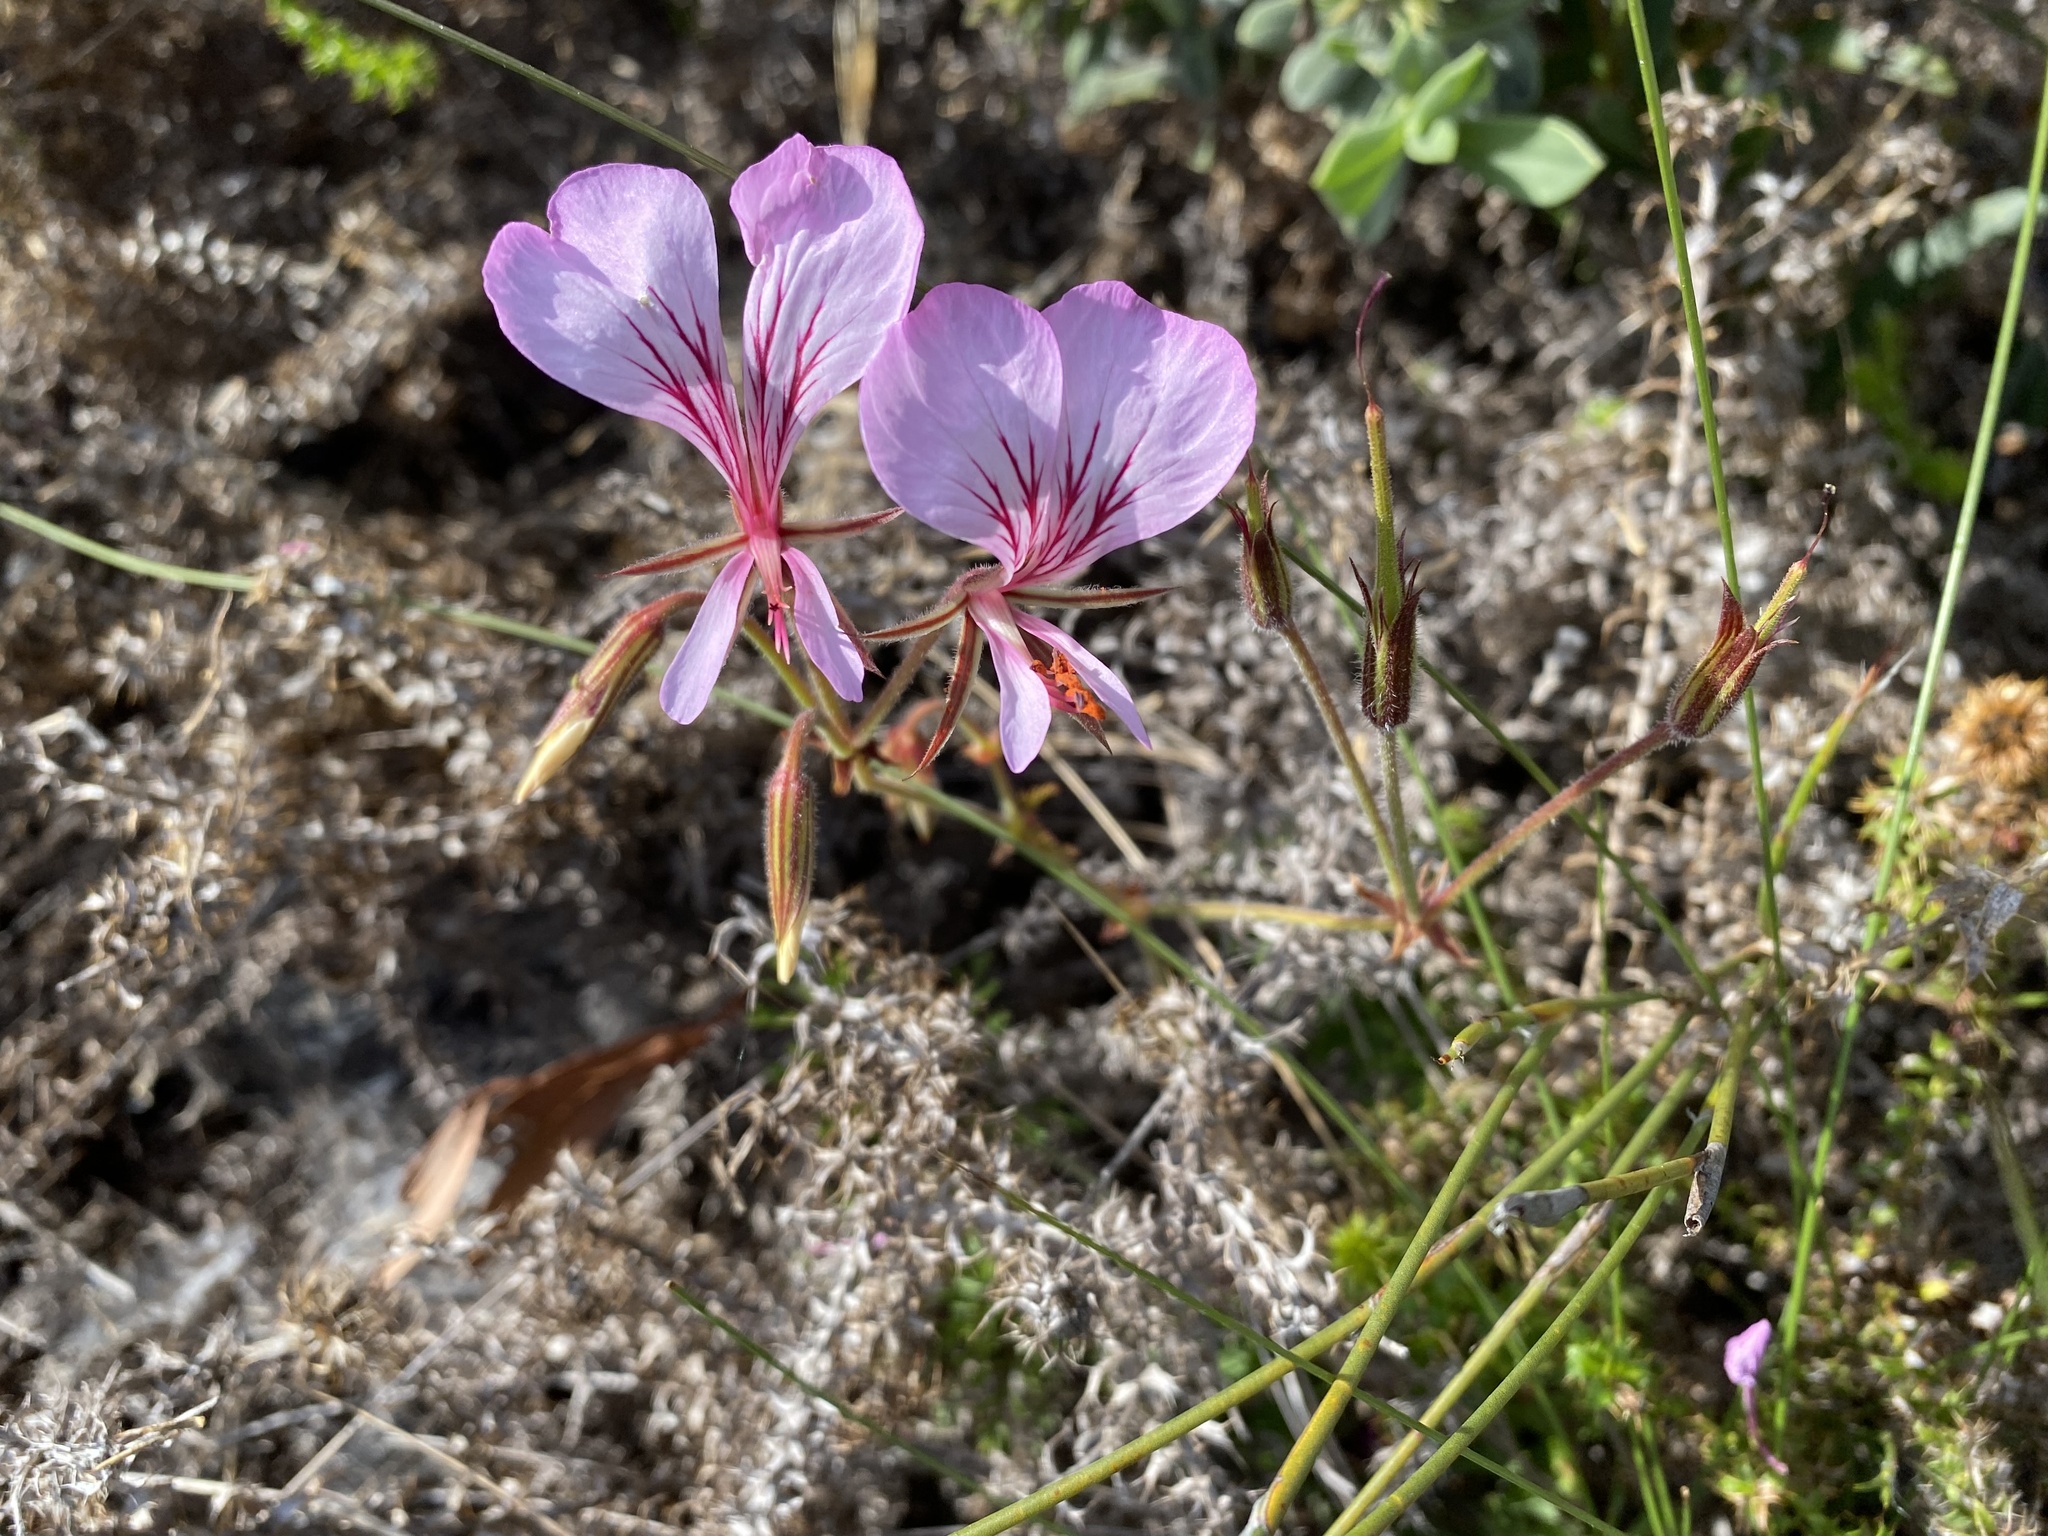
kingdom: Plantae
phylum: Tracheophyta
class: Magnoliopsida
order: Geraniales
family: Geraniaceae
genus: Pelargonium
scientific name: Pelargonium longicaule
